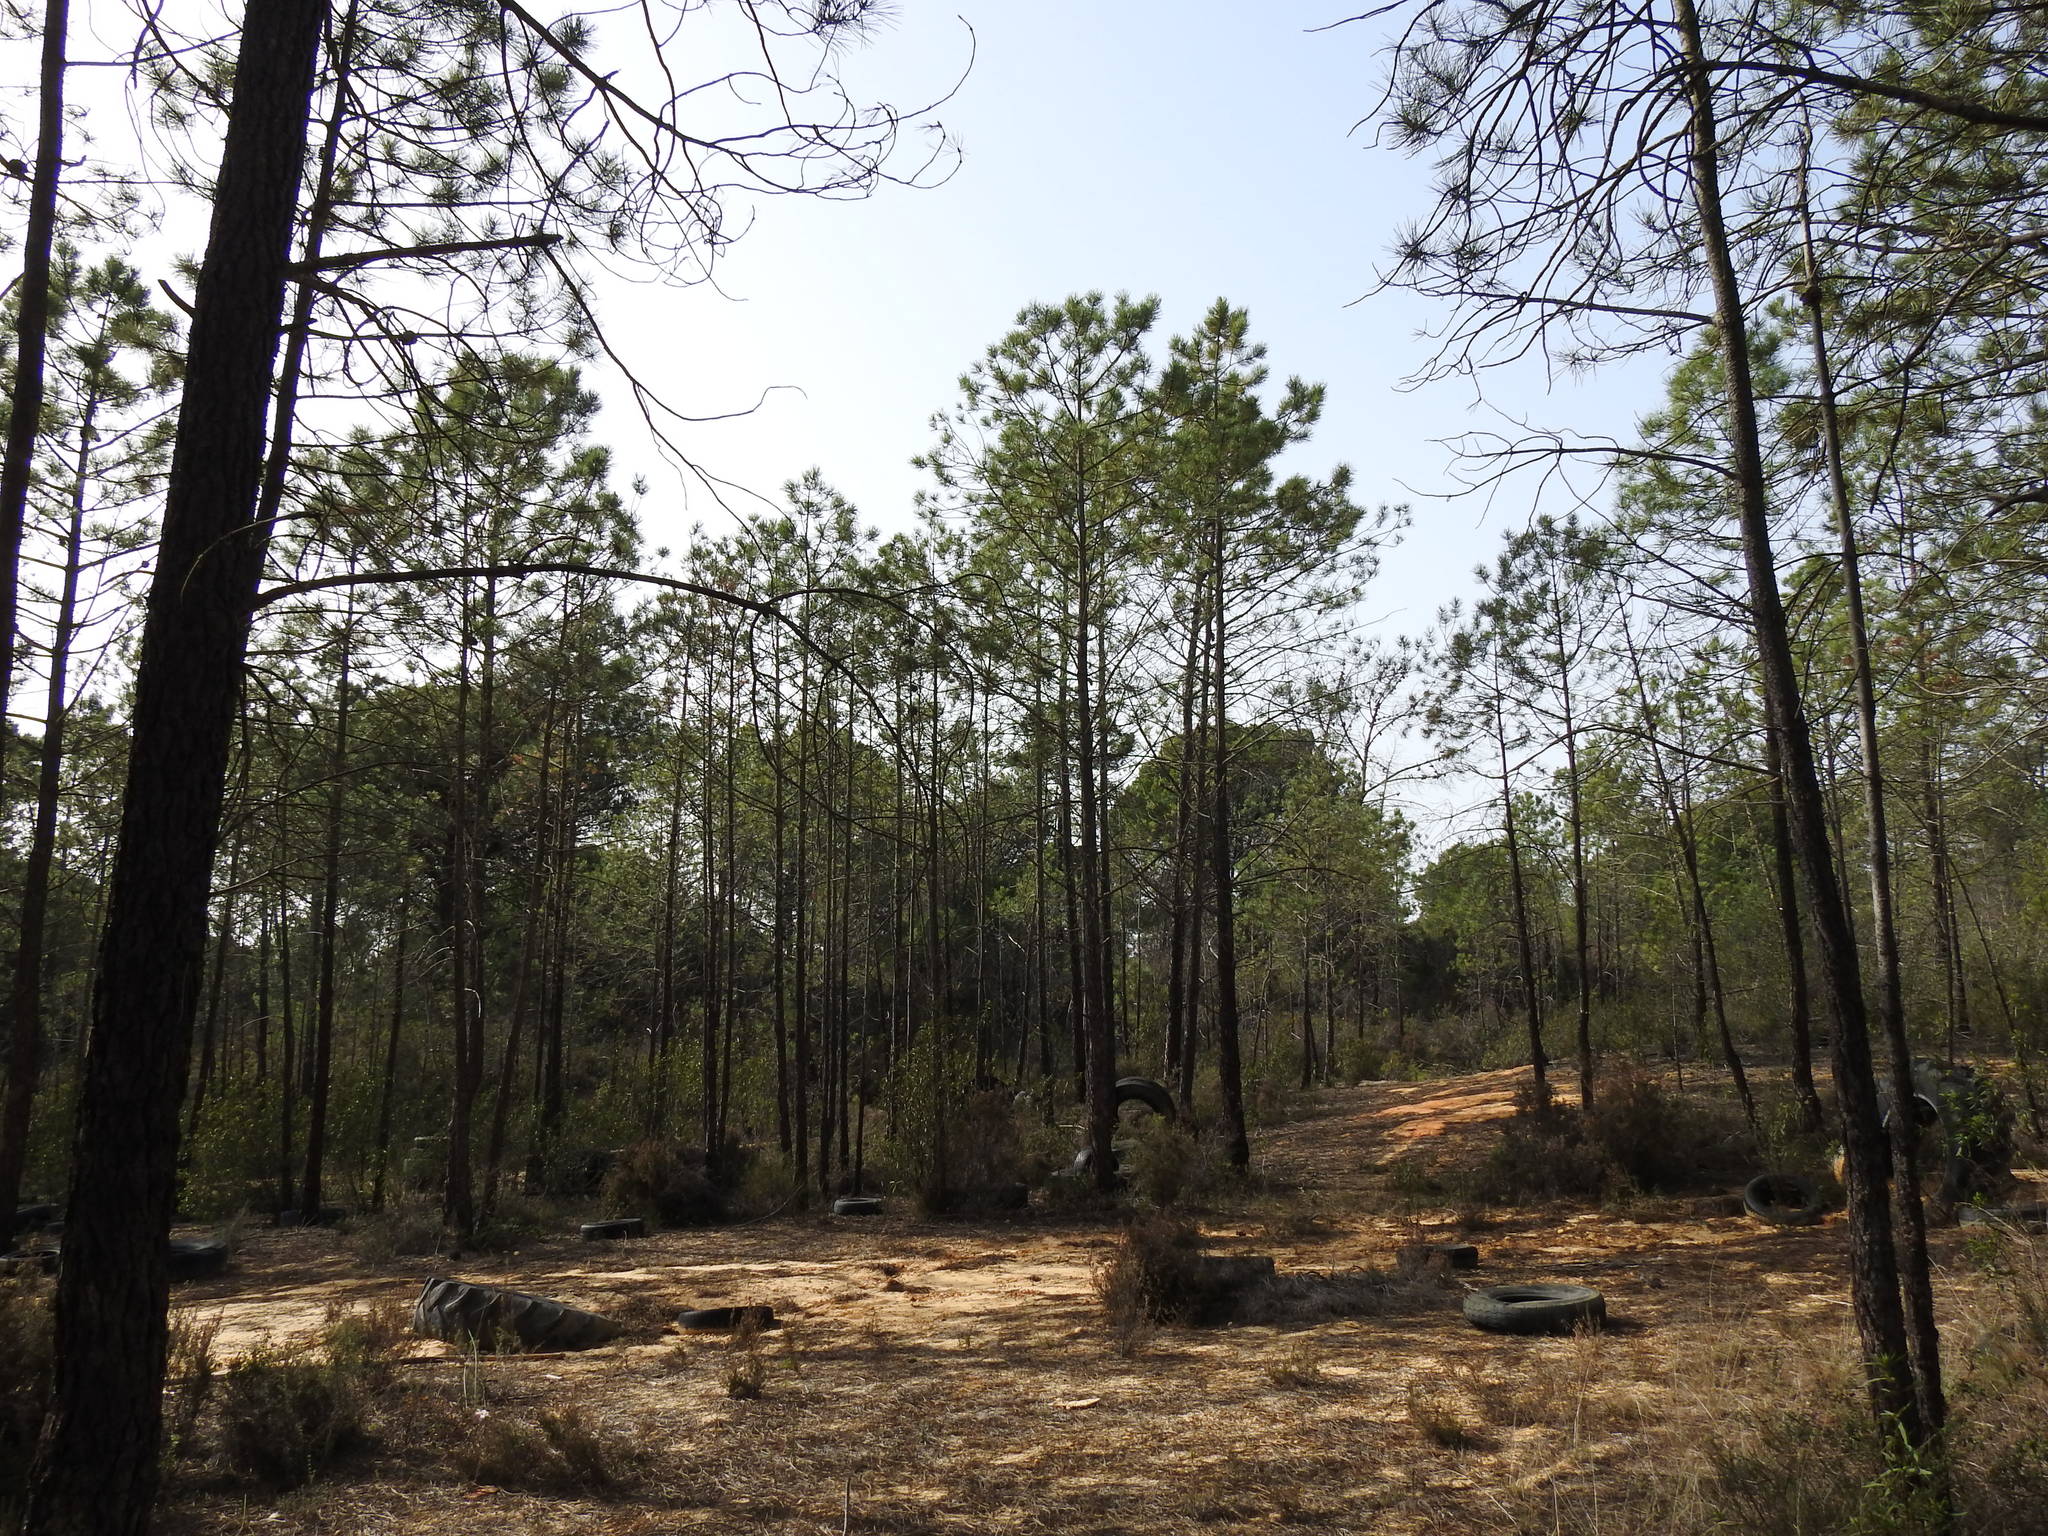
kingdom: Plantae
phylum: Tracheophyta
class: Pinopsida
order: Pinales
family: Pinaceae
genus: Pinus
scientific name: Pinus pinaster
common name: Maritime pine
